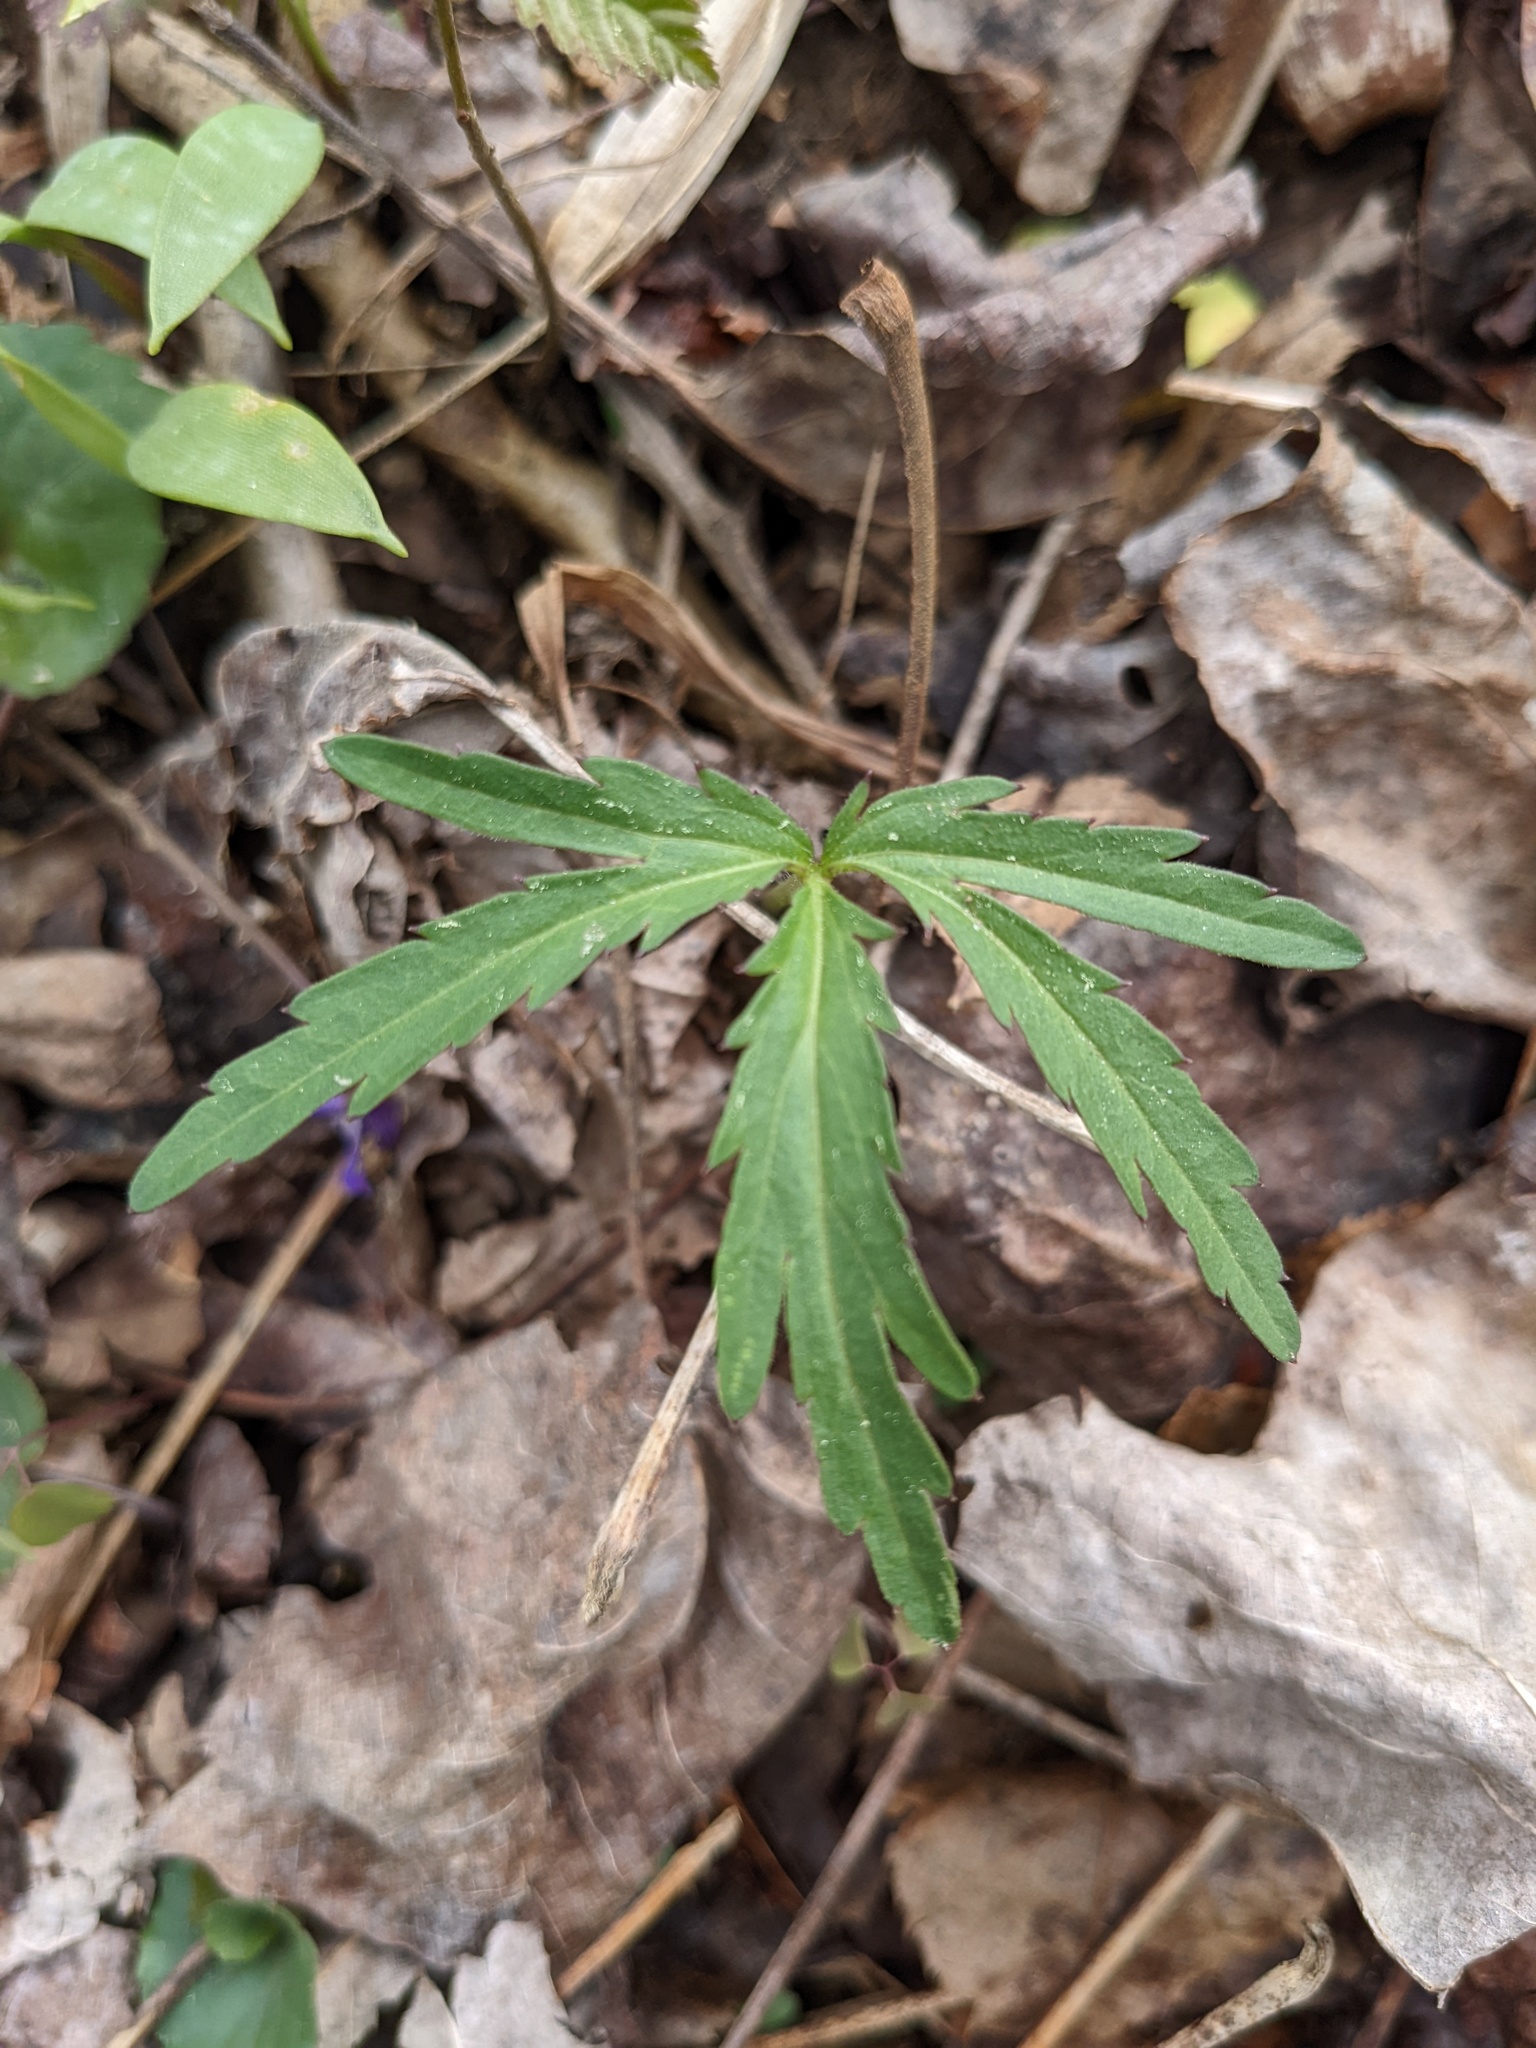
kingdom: Plantae
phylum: Tracheophyta
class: Magnoliopsida
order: Brassicales
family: Brassicaceae
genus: Cardamine
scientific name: Cardamine concatenata
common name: Cut-leaf toothcup
